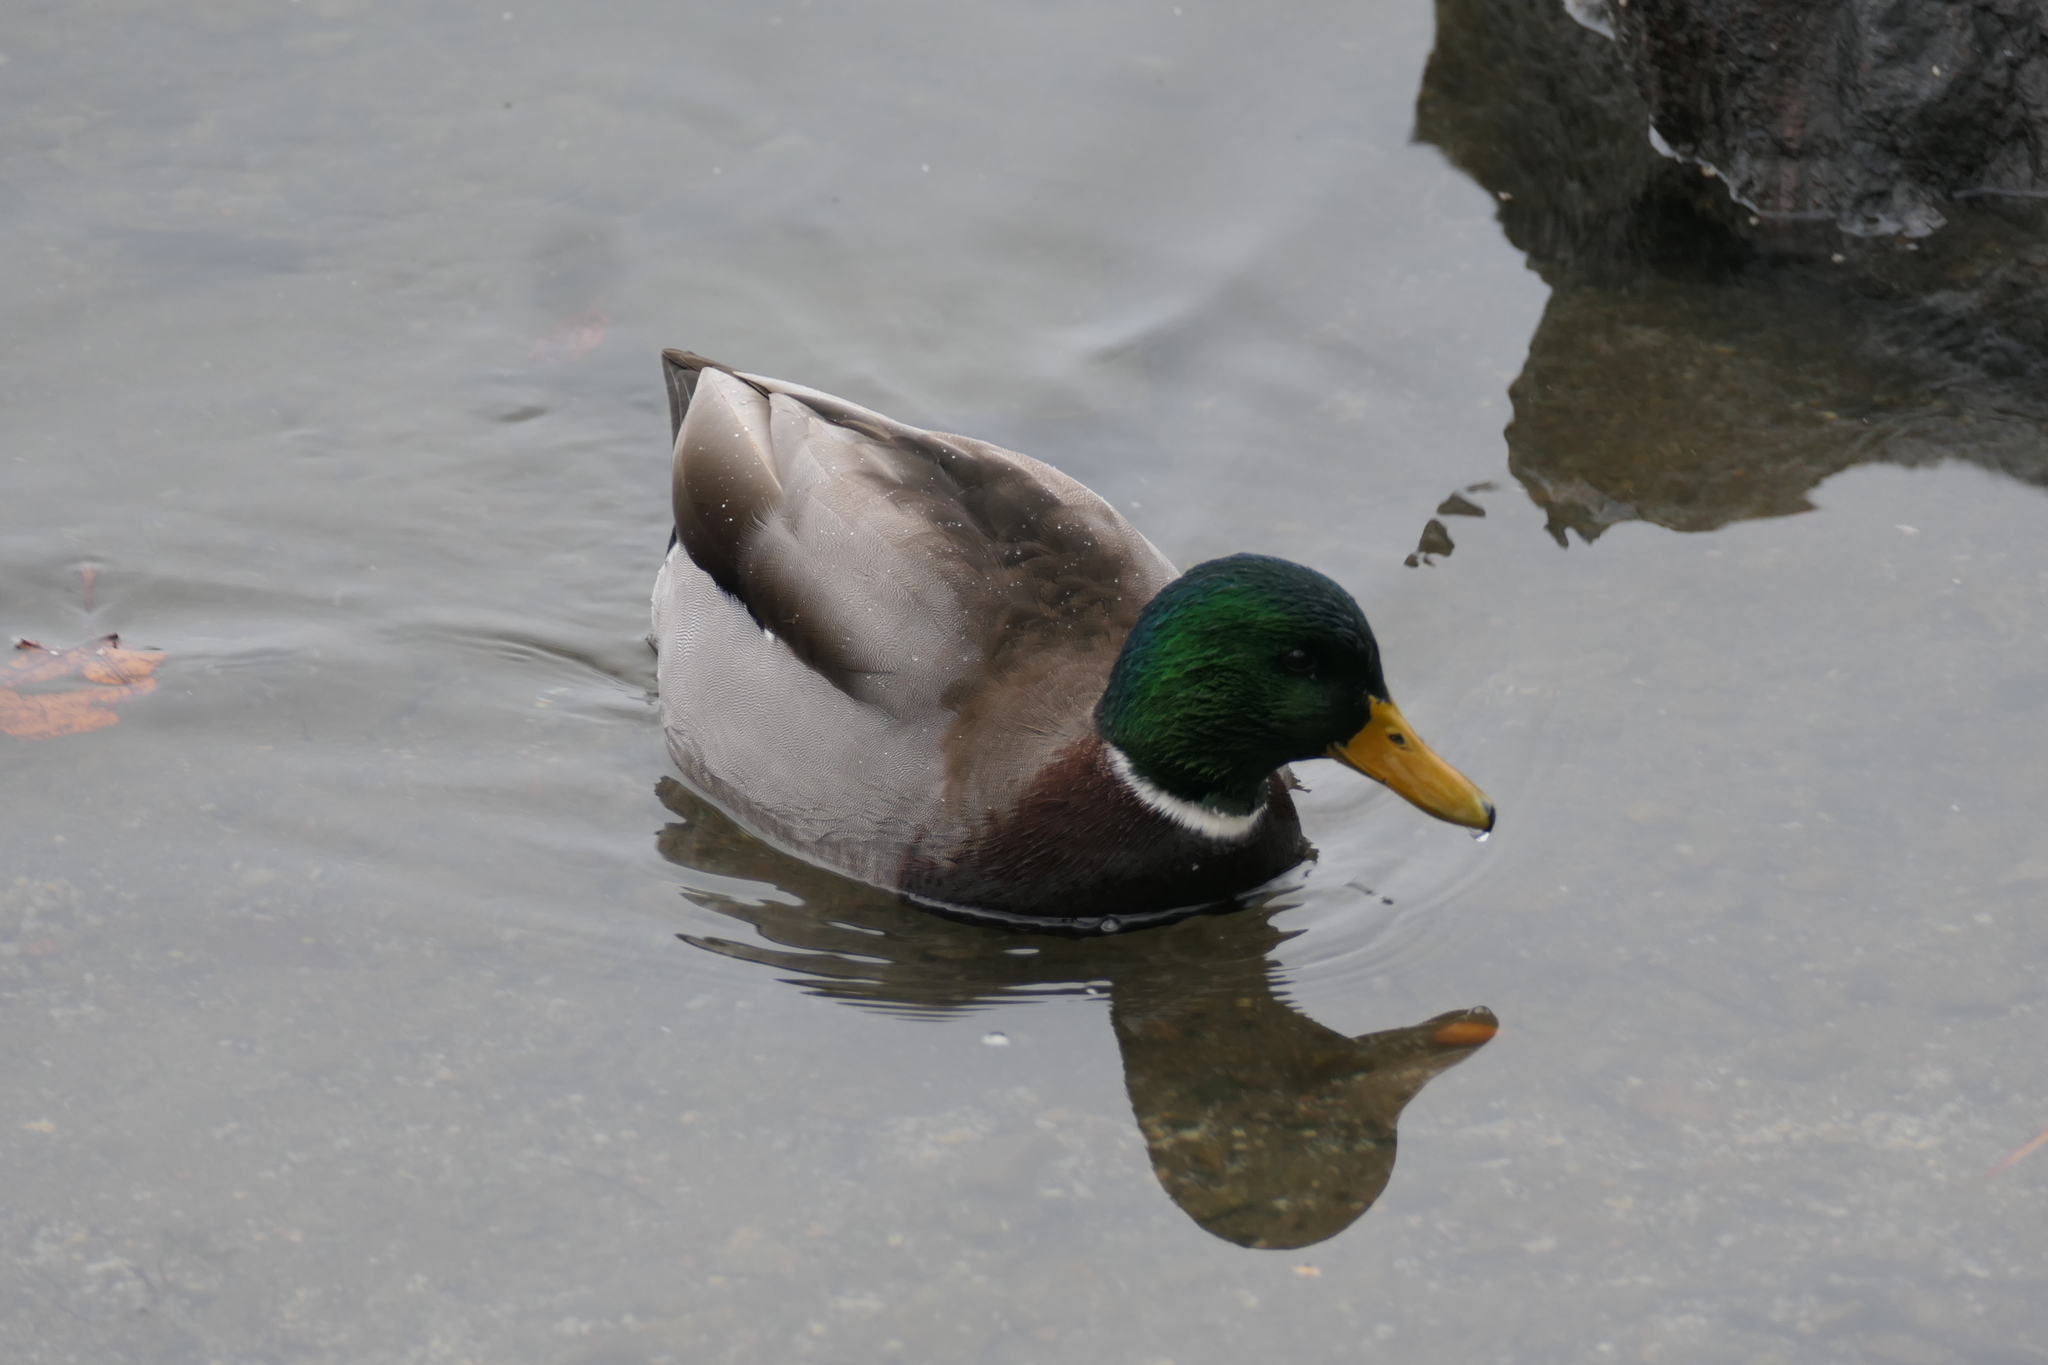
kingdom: Animalia
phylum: Chordata
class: Aves
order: Anseriformes
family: Anatidae
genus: Anas
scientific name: Anas platyrhynchos
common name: Mallard
